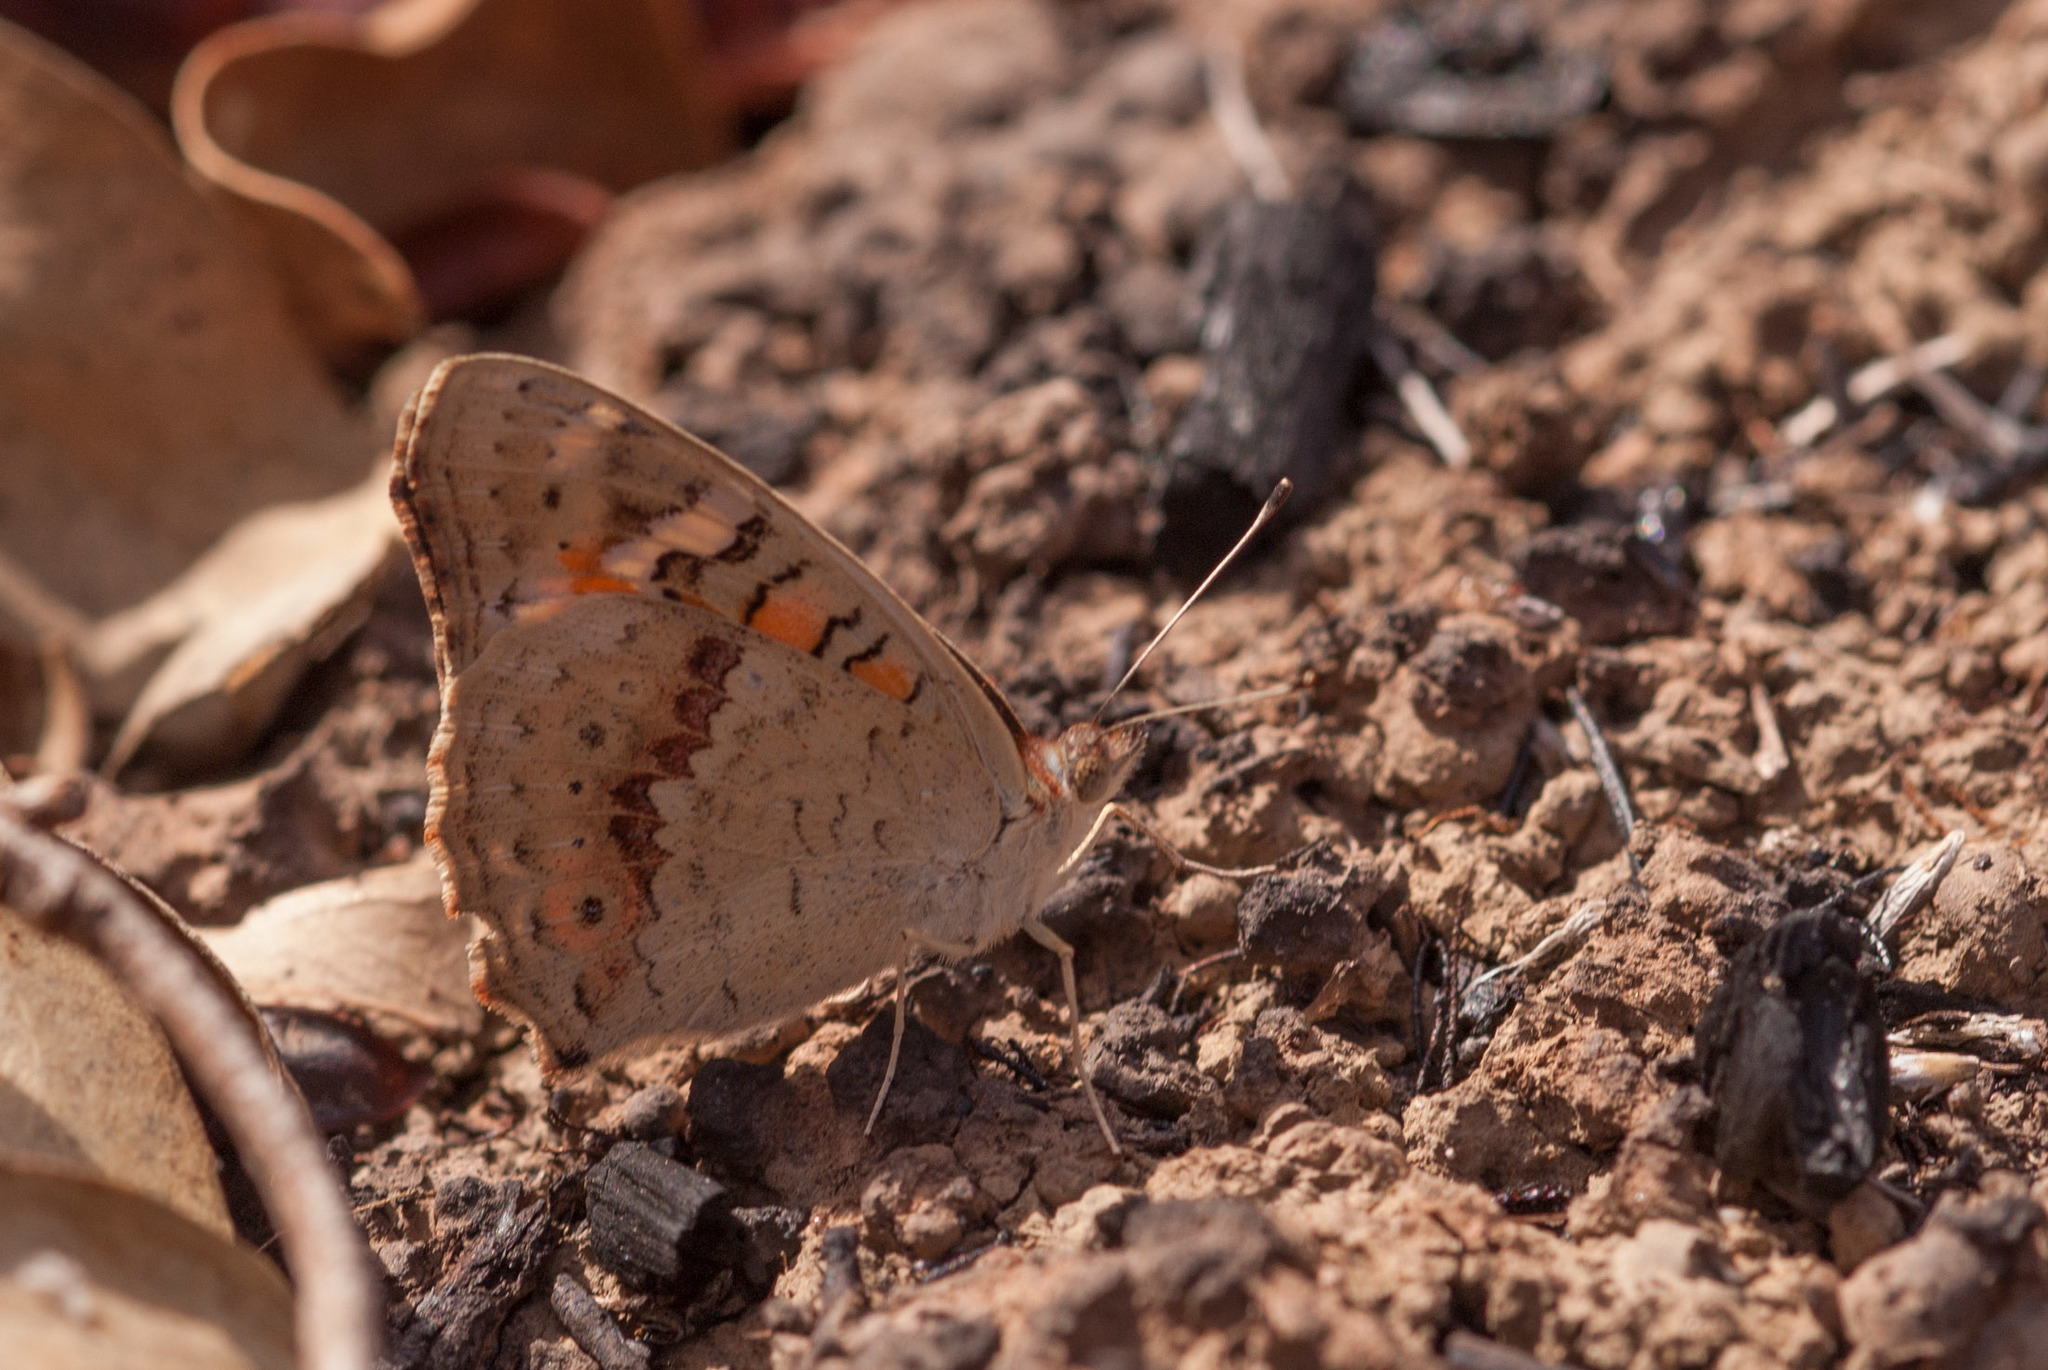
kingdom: Animalia
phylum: Arthropoda
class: Insecta
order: Lepidoptera
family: Nymphalidae
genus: Junonia
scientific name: Junonia villida
